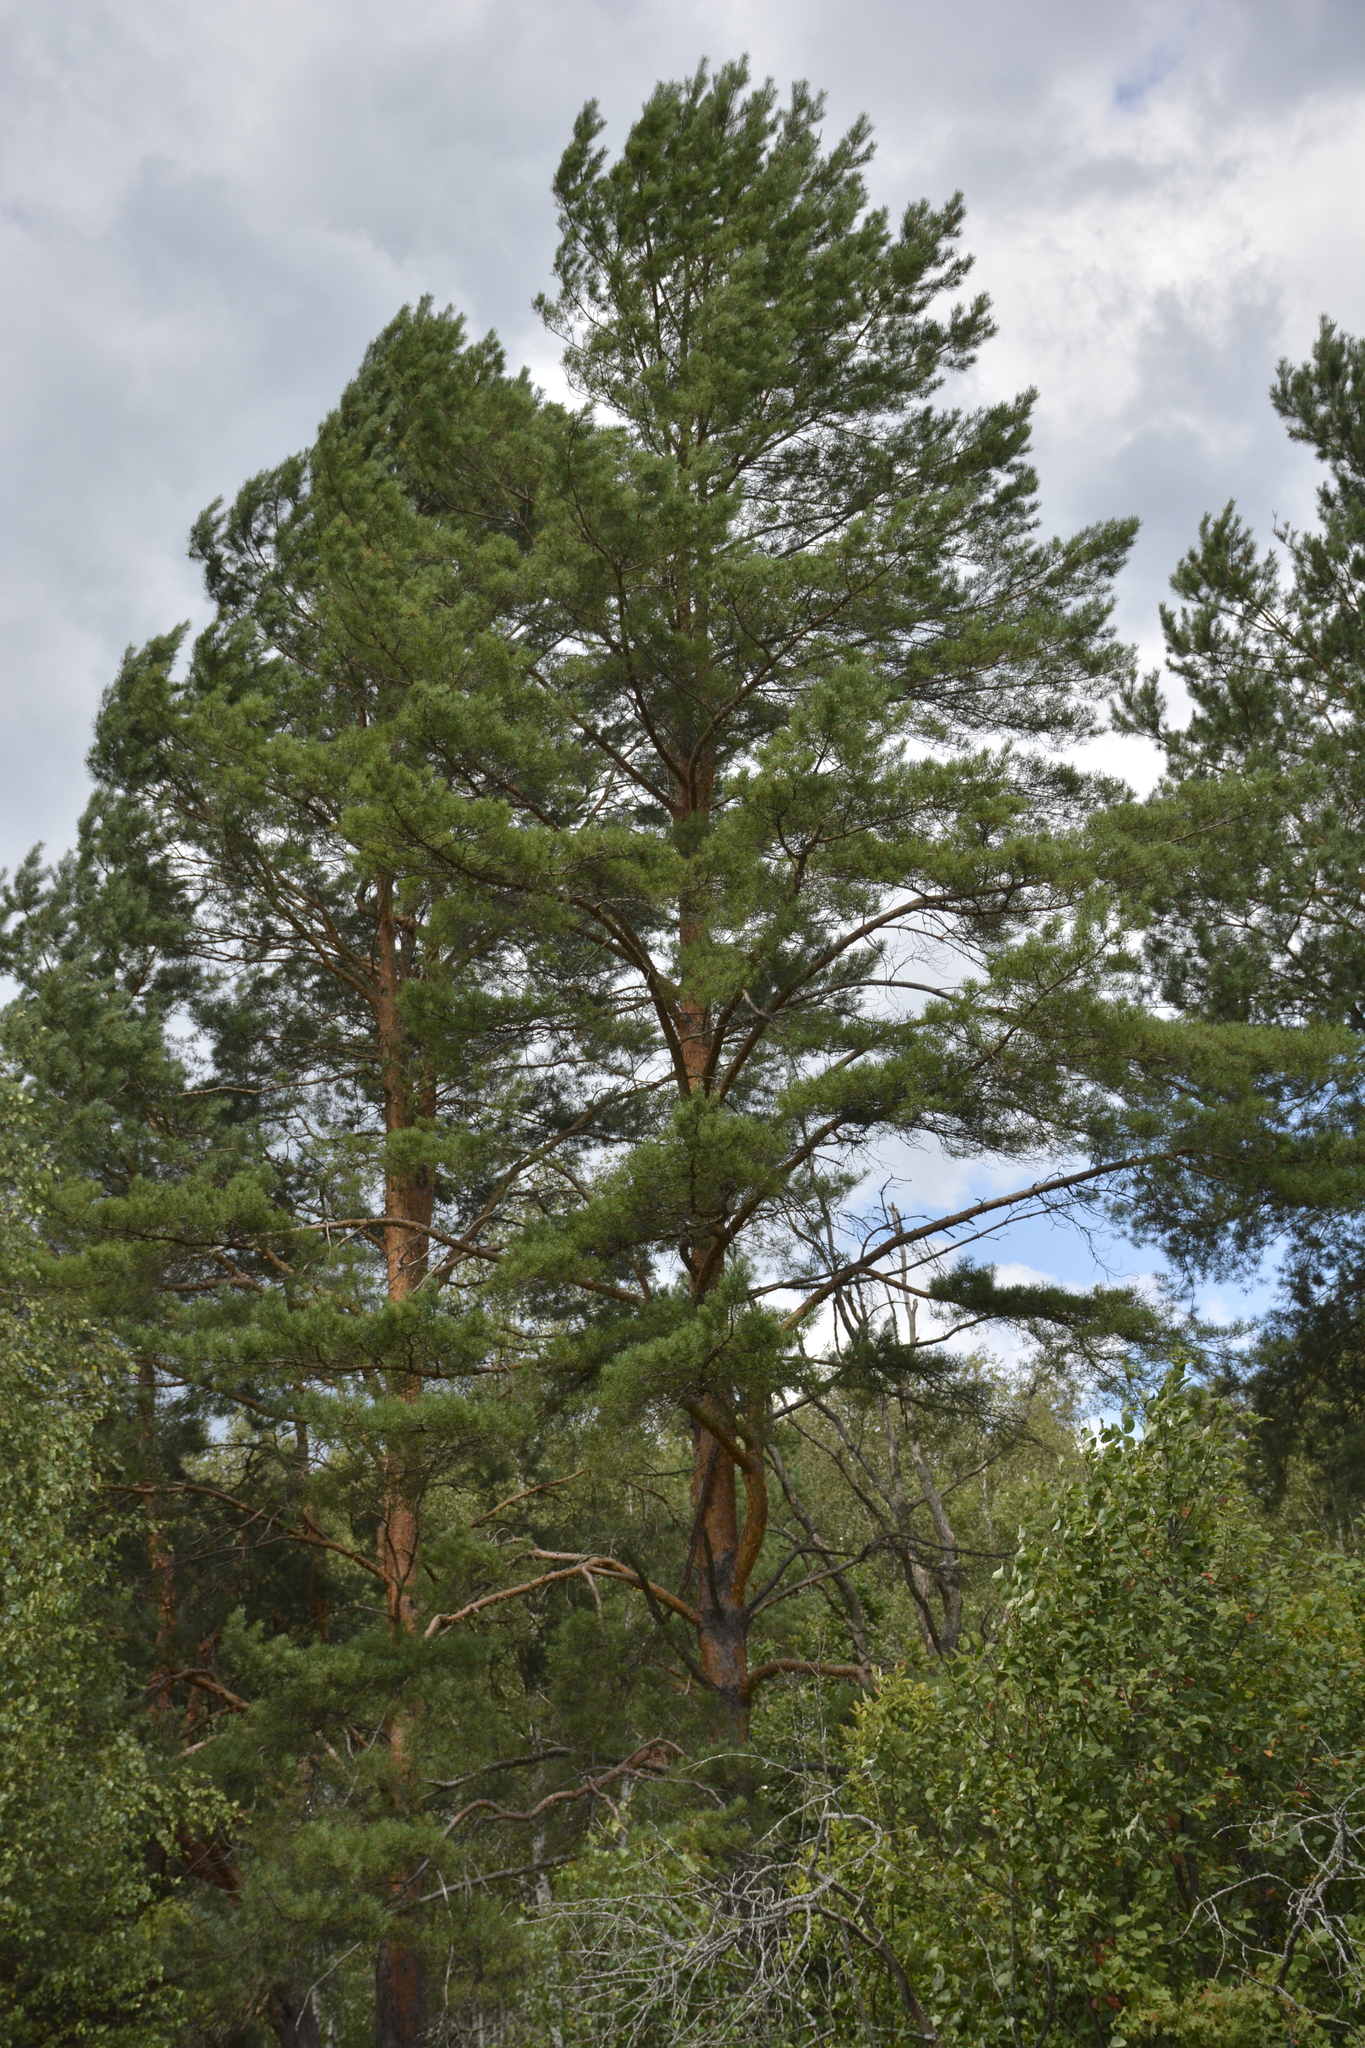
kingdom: Plantae
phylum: Tracheophyta
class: Pinopsida
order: Pinales
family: Pinaceae
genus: Pinus
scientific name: Pinus sylvestris
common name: Scots pine
